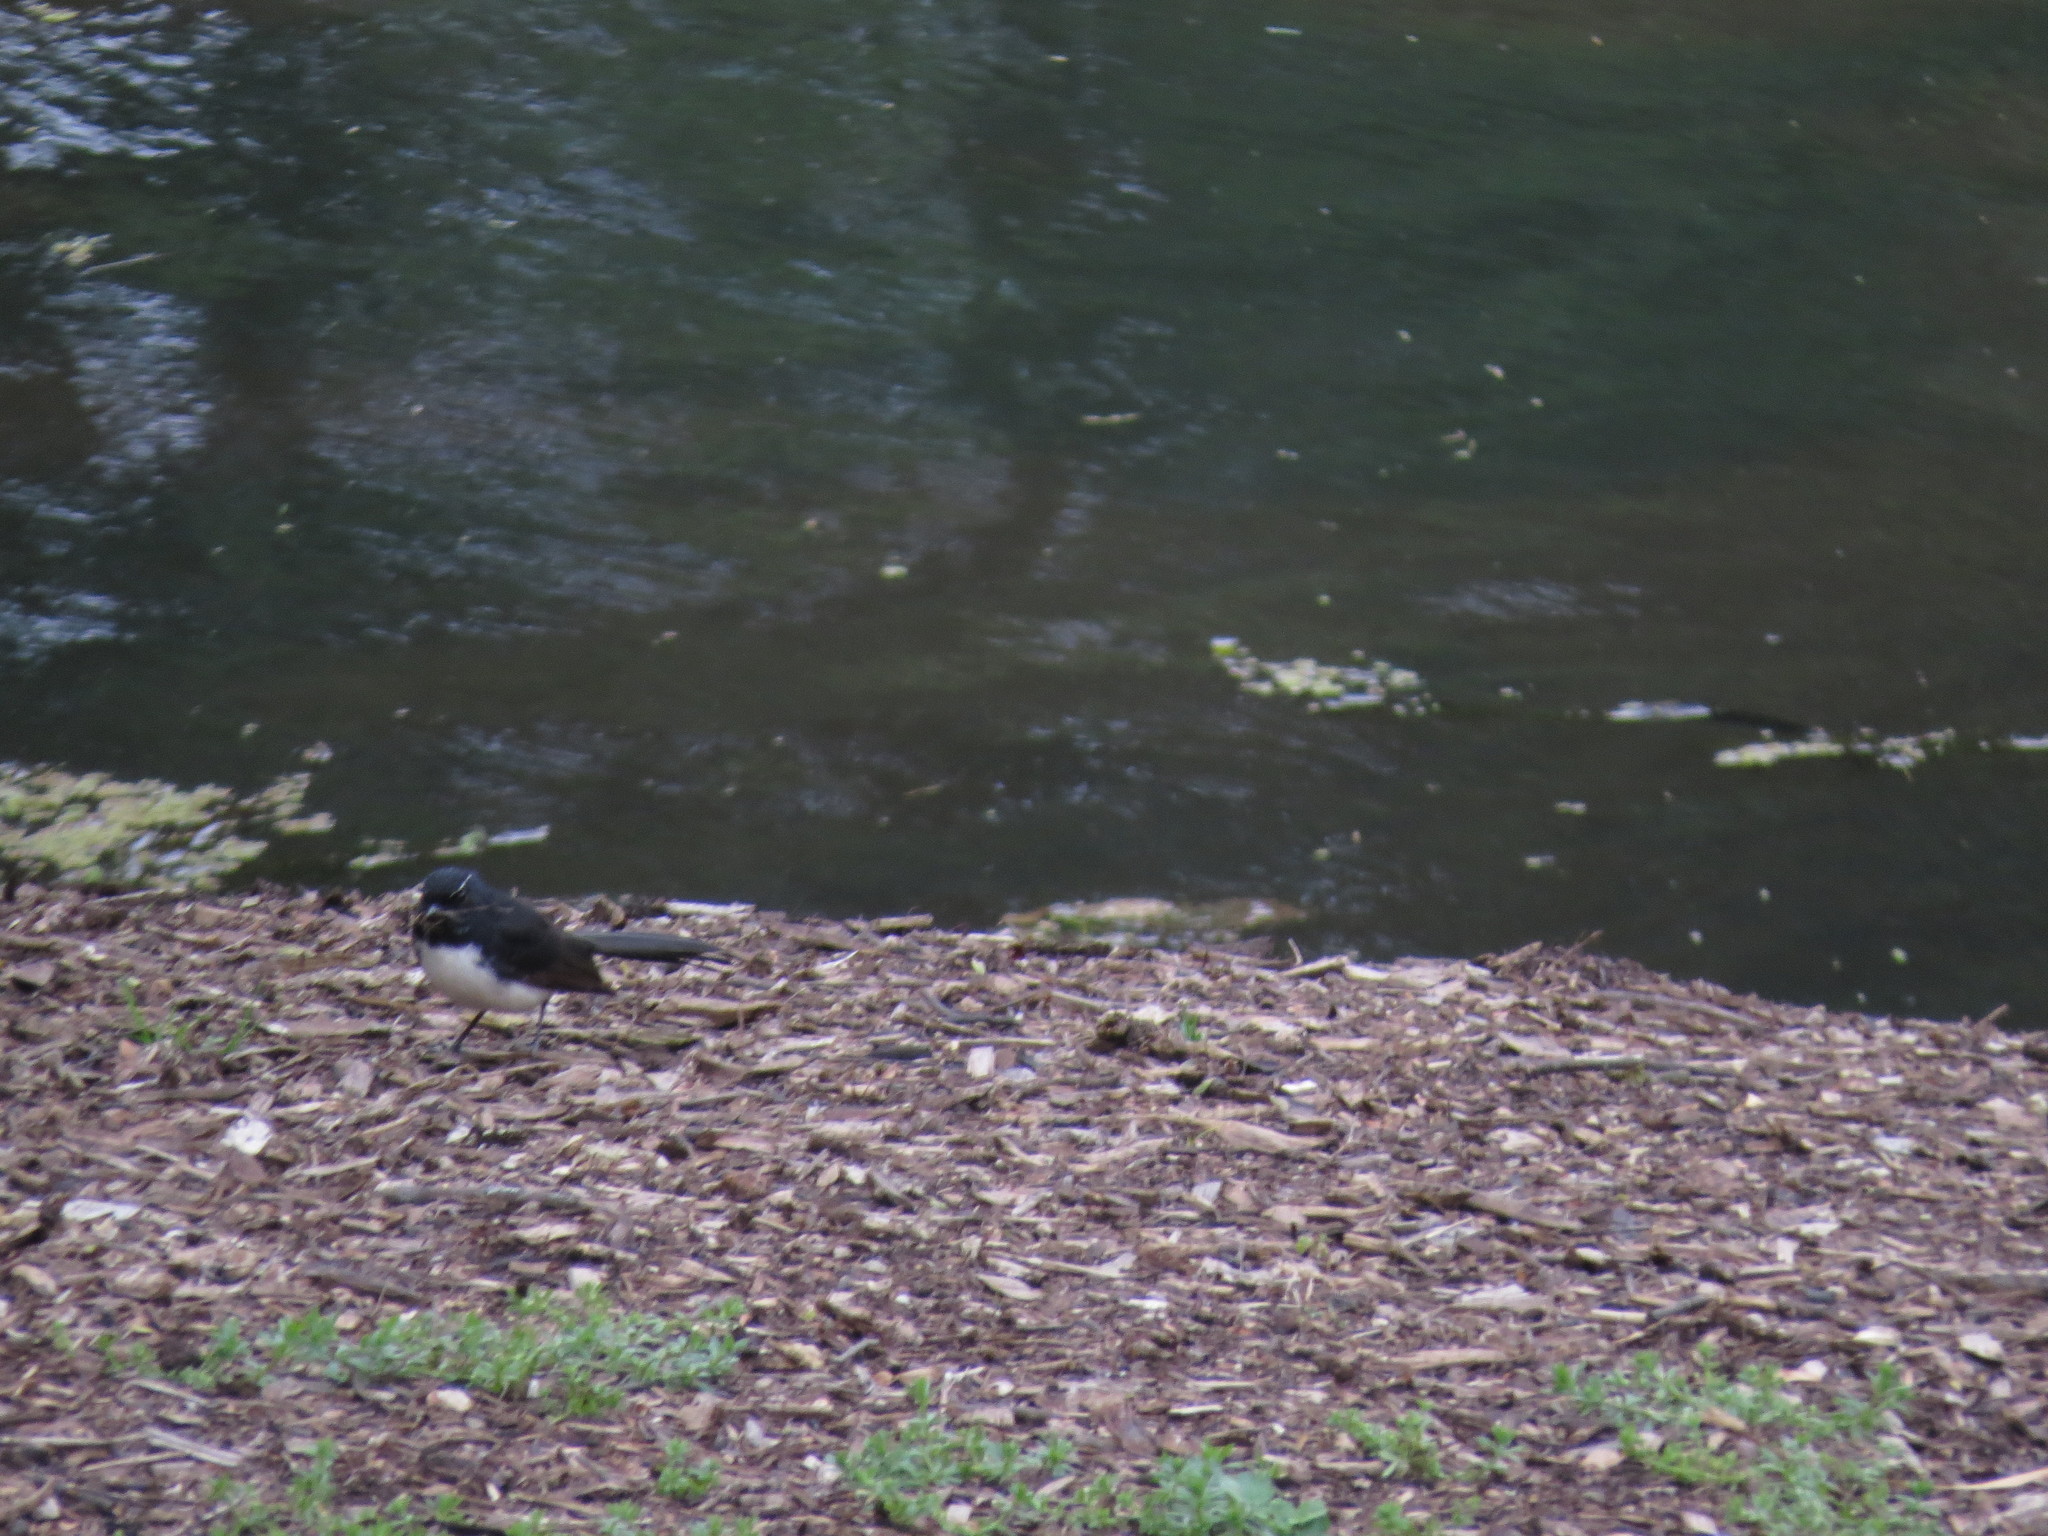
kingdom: Animalia
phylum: Chordata
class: Aves
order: Passeriformes
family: Rhipiduridae
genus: Rhipidura
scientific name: Rhipidura leucophrys
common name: Willie wagtail
